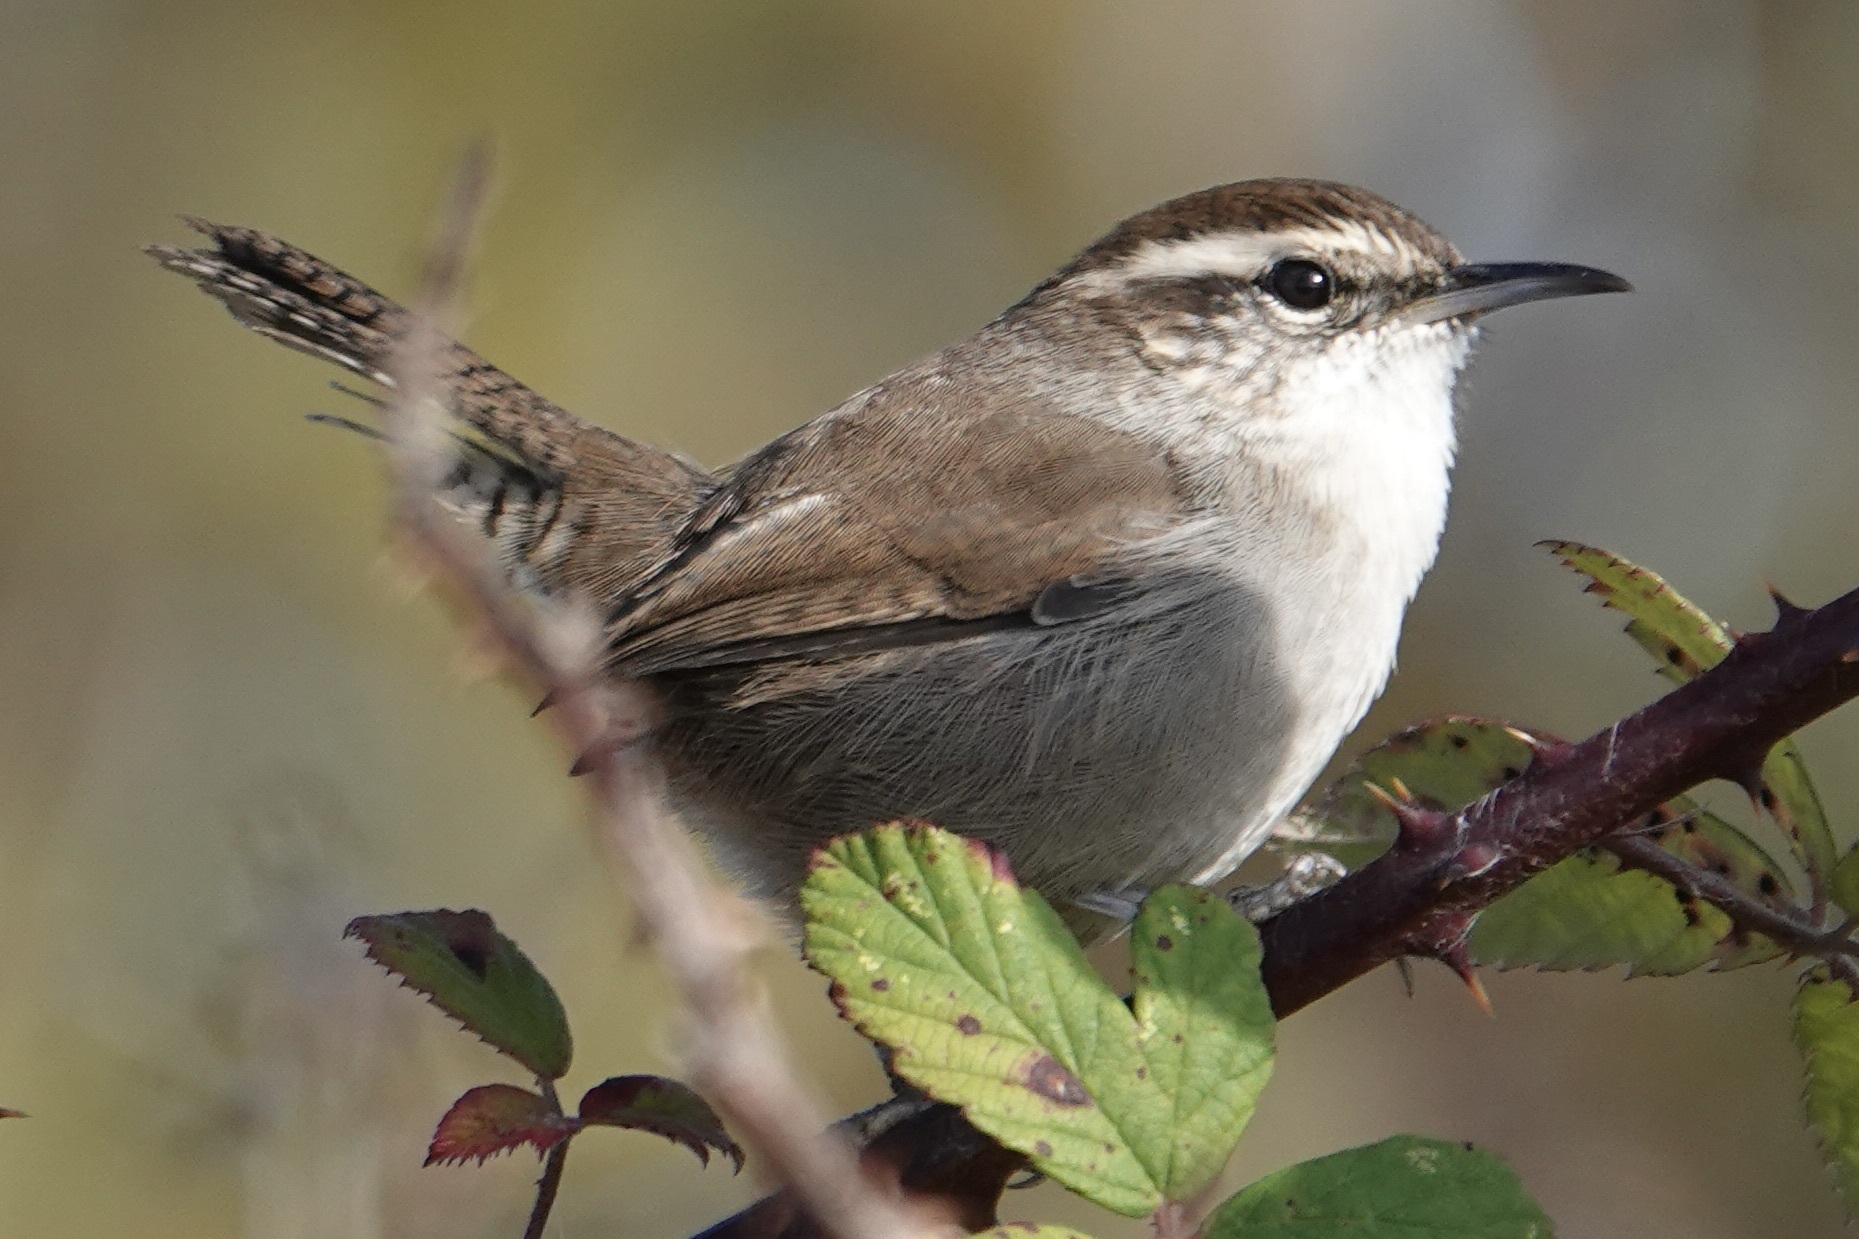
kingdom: Animalia
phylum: Chordata
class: Aves
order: Passeriformes
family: Troglodytidae
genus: Thryomanes
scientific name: Thryomanes bewickii
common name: Bewick's wren
